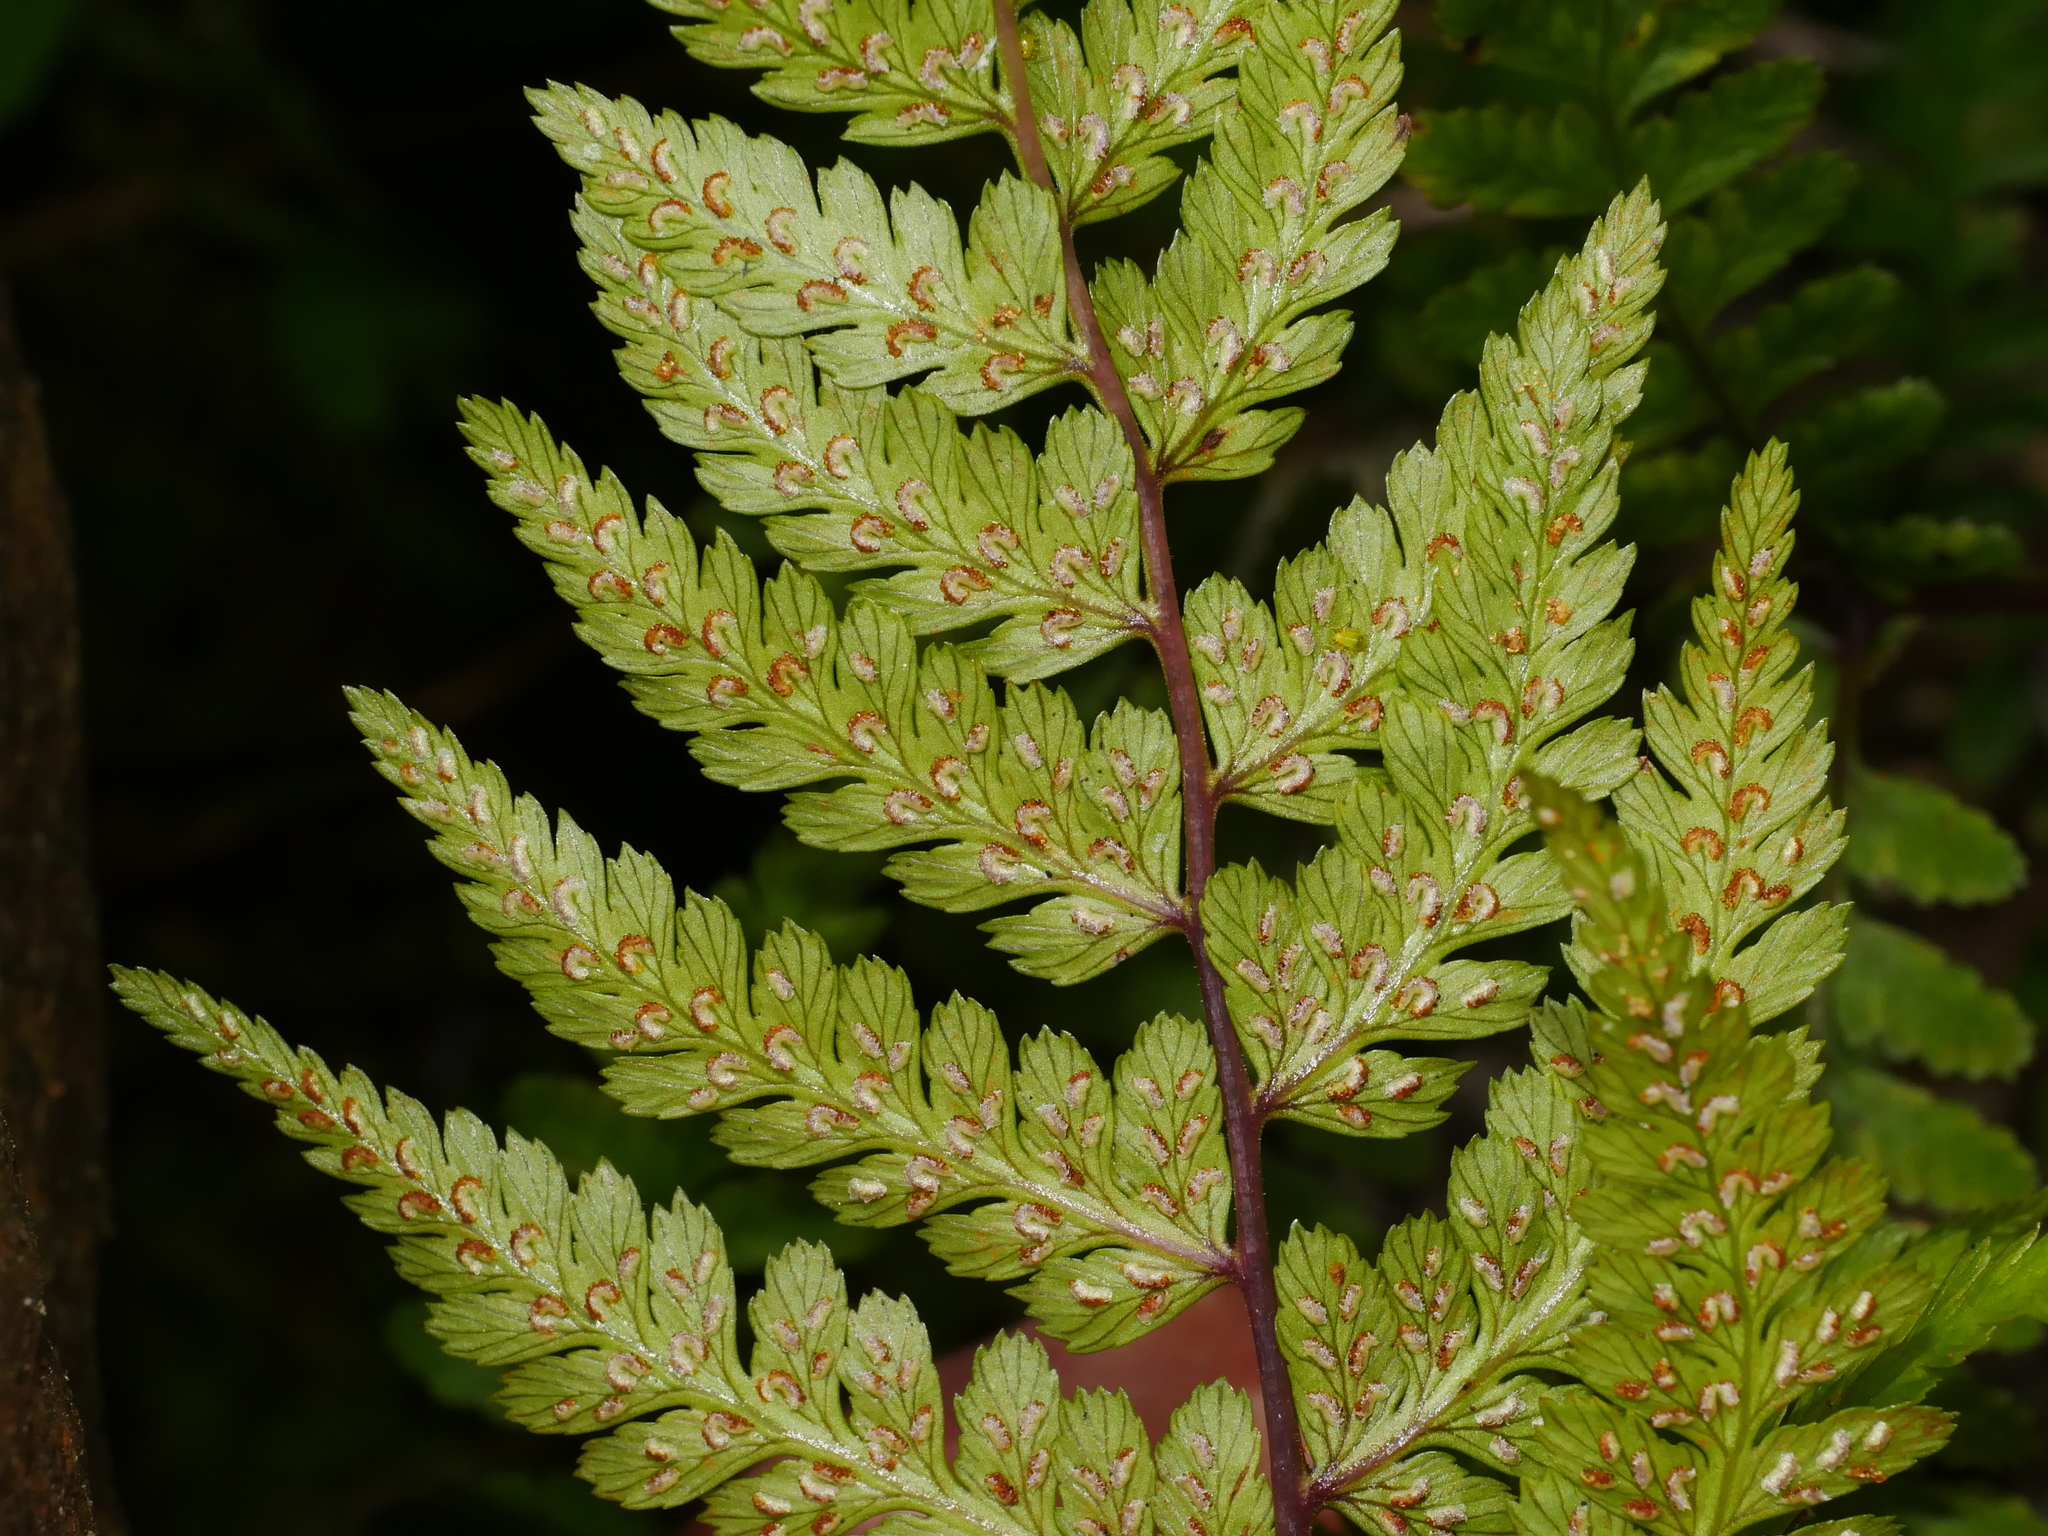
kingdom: Plantae
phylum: Tracheophyta
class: Polypodiopsida
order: Polypodiales
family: Athyriaceae
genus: Athyrium
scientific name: Athyrium vidalii
